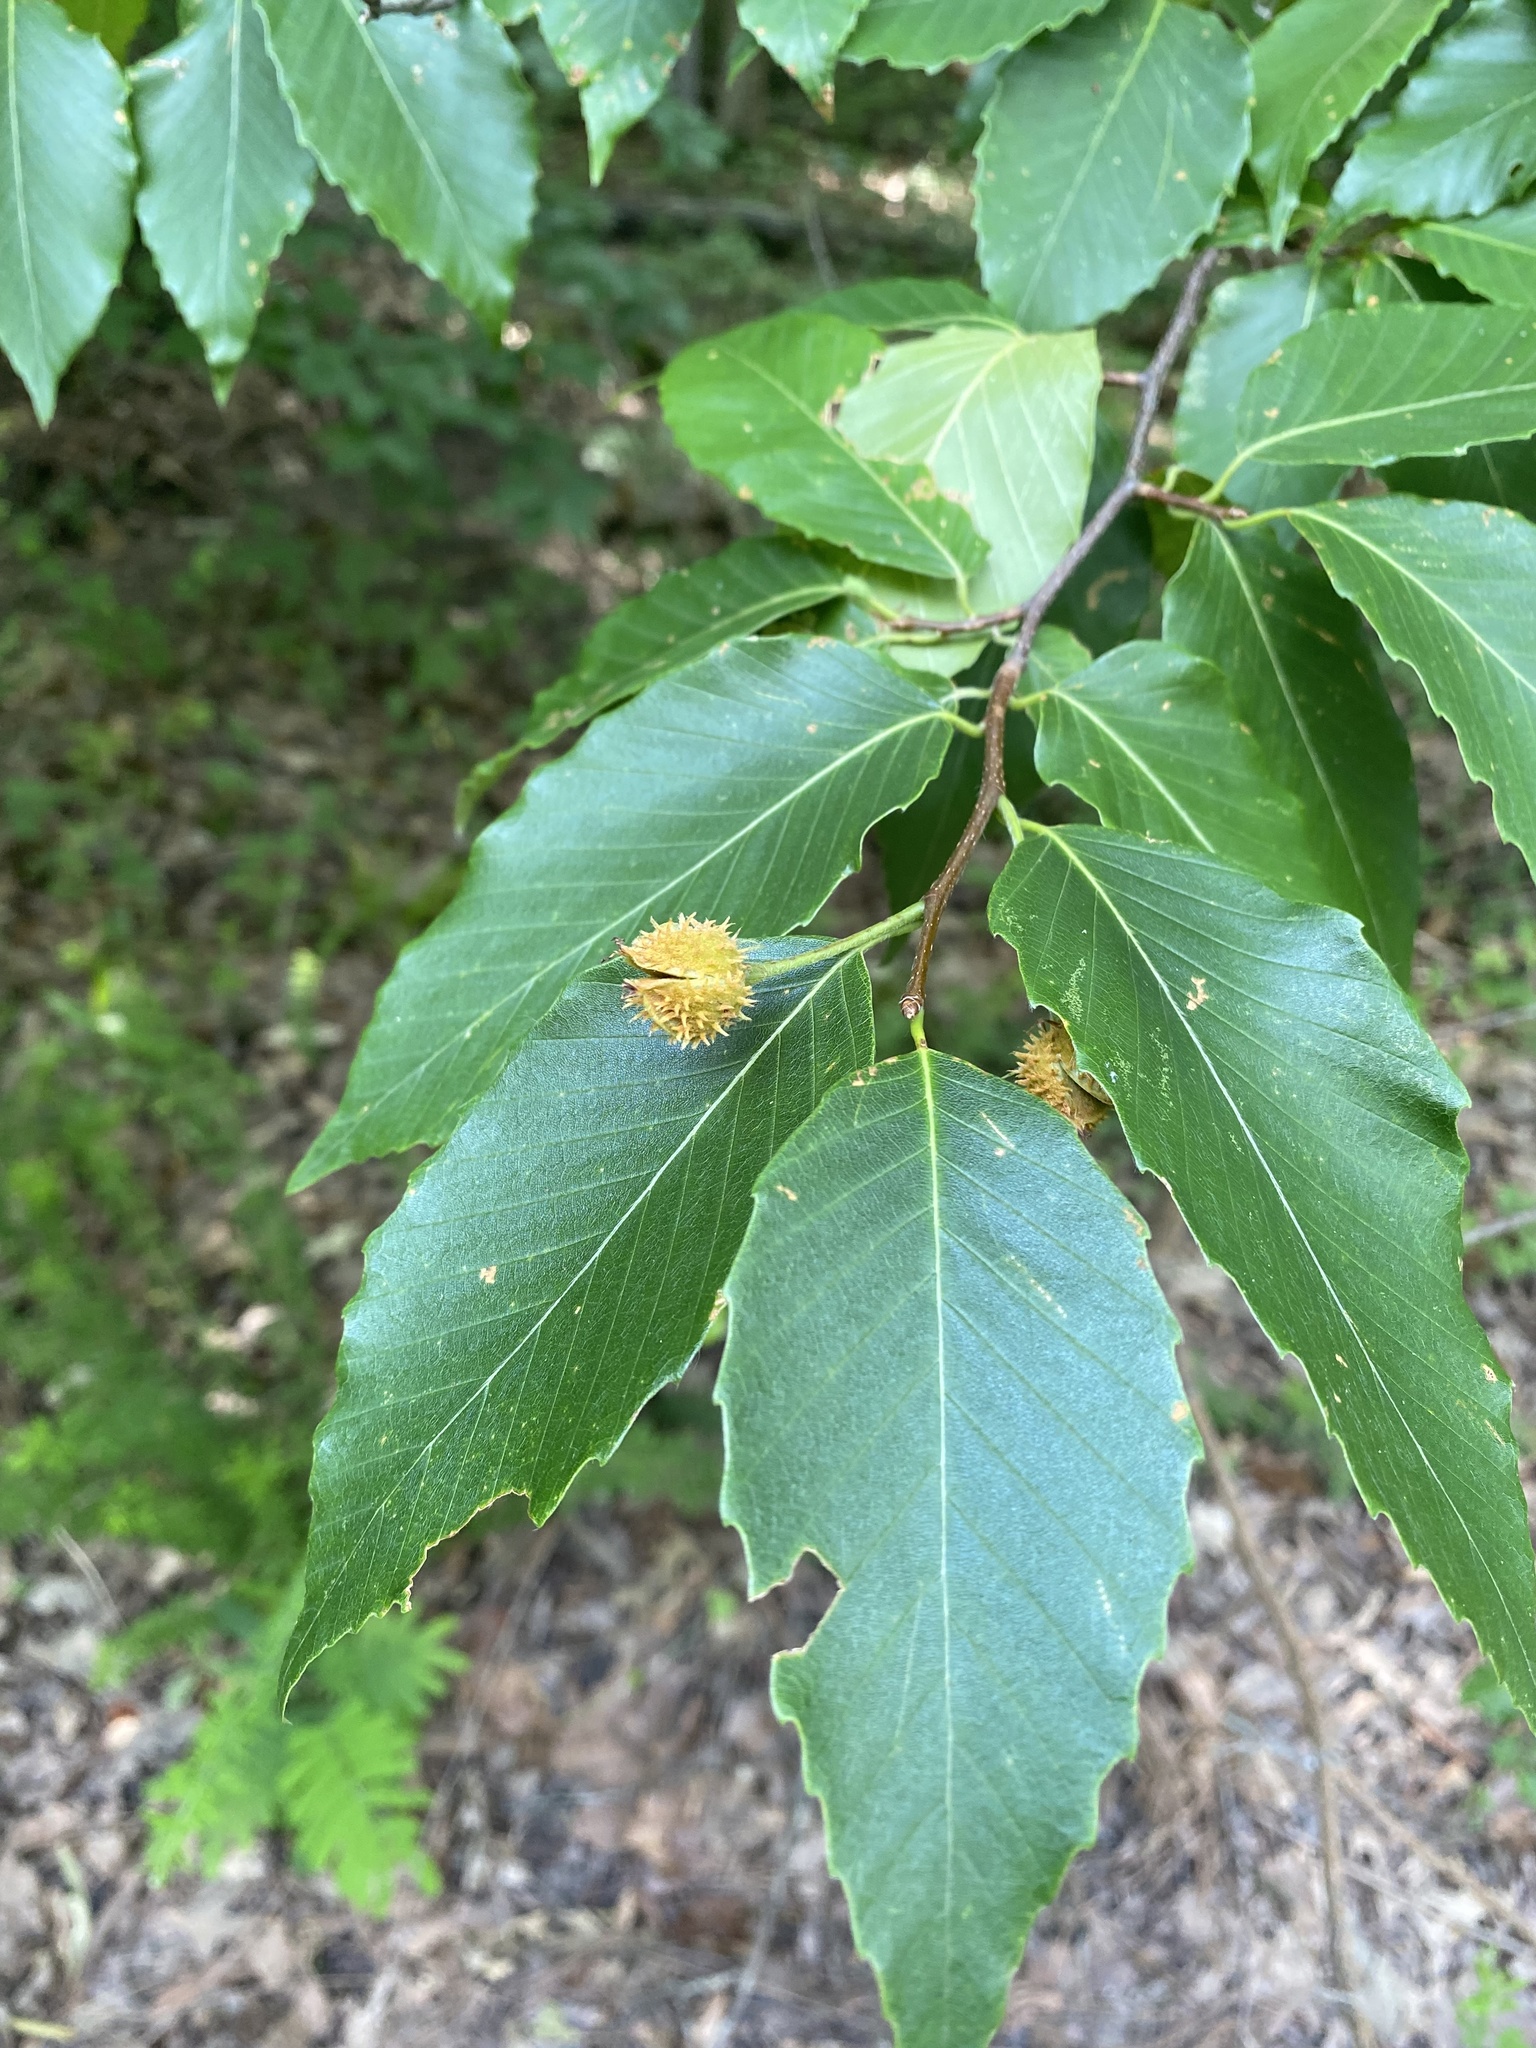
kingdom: Plantae
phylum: Tracheophyta
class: Magnoliopsida
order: Fagales
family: Fagaceae
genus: Fagus
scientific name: Fagus grandifolia
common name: American beech
